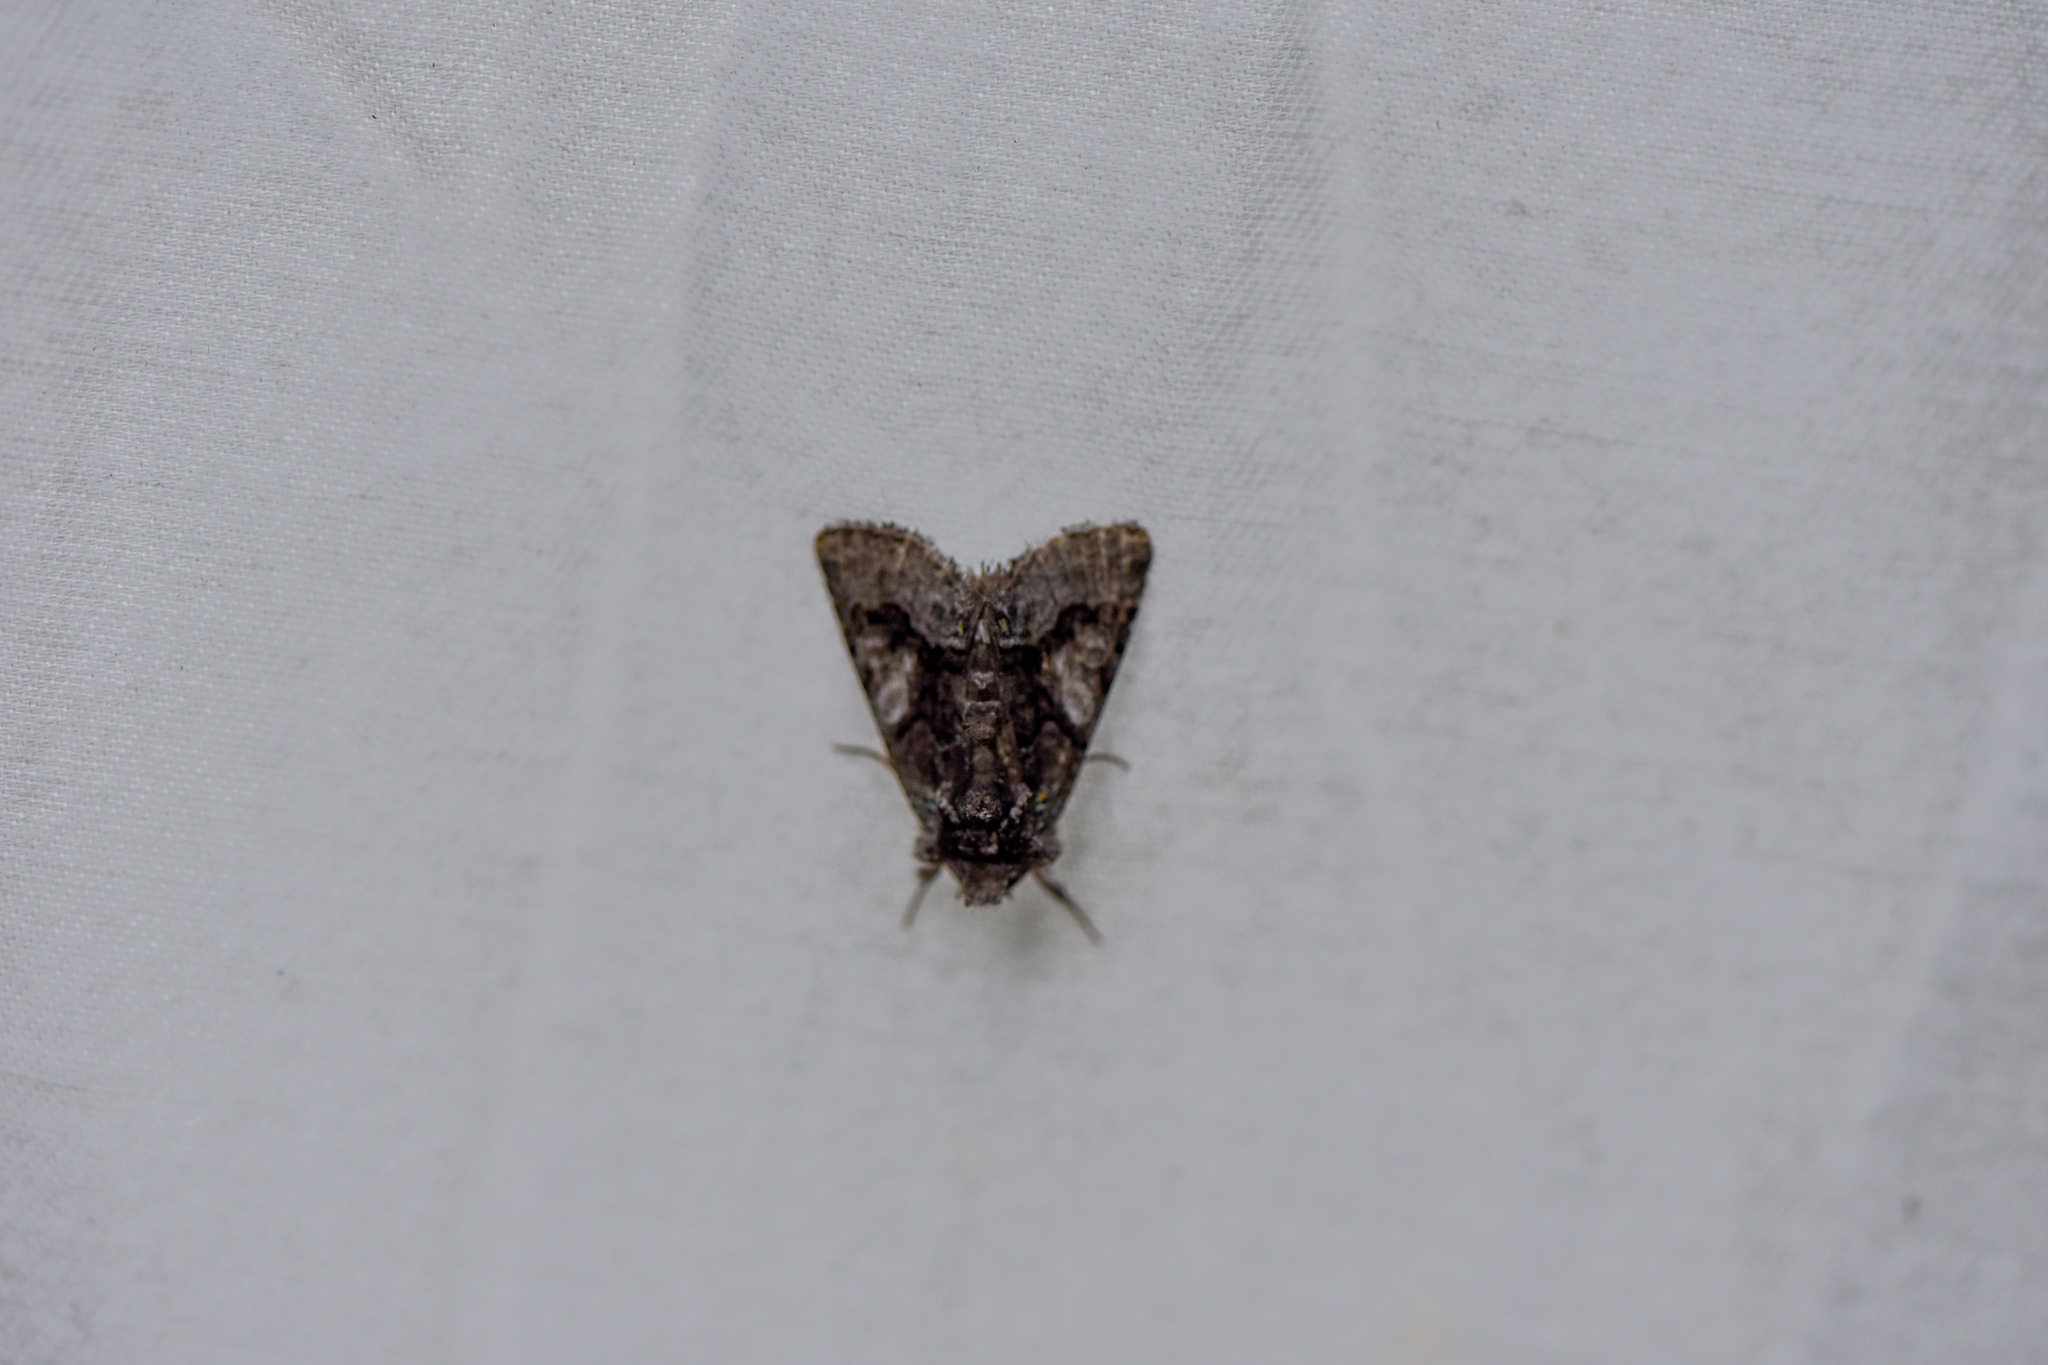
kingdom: Animalia
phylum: Arthropoda
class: Insecta
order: Lepidoptera
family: Noctuidae
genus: Behrensia
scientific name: Behrensia conchiformis
